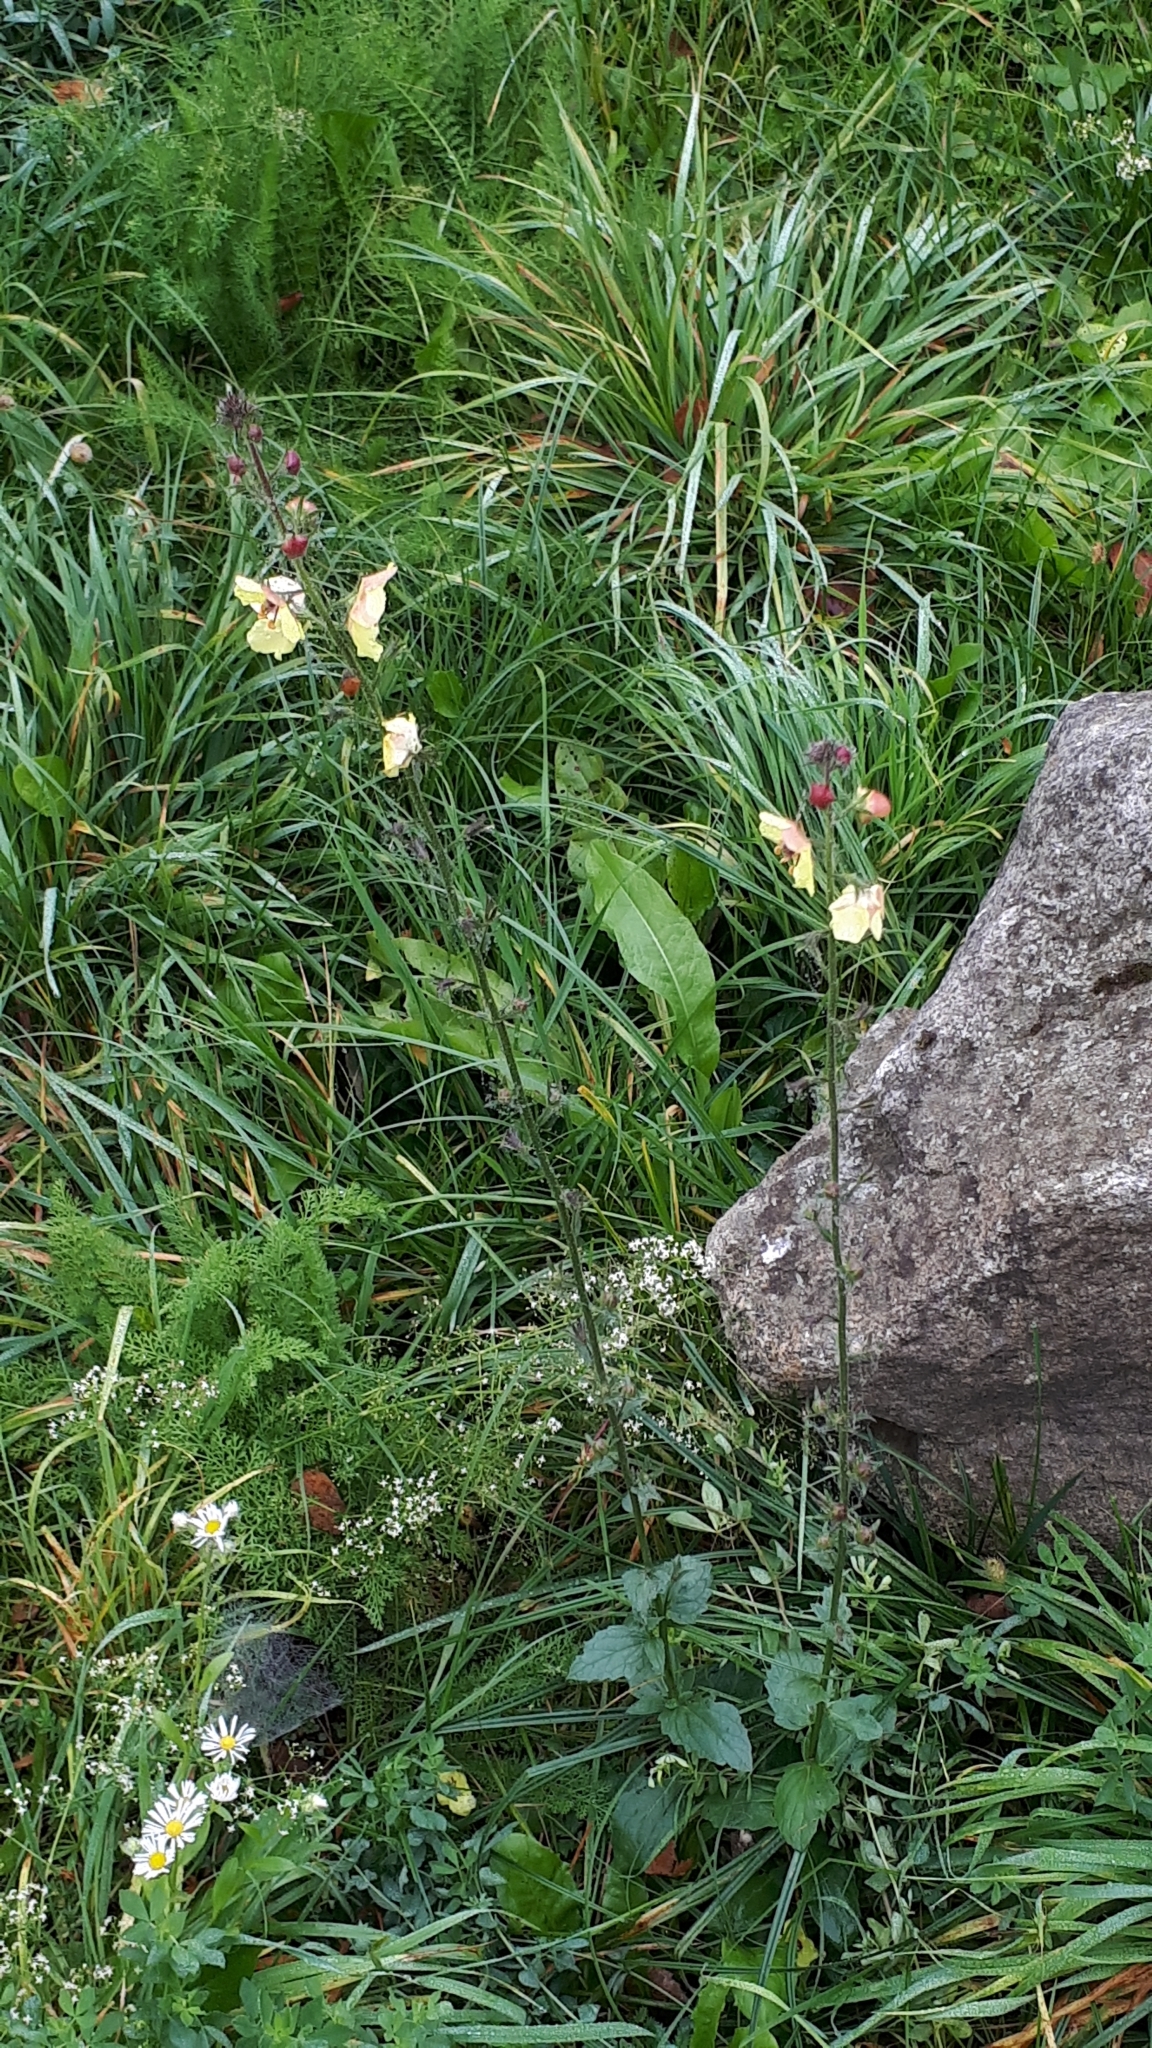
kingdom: Plantae
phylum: Tracheophyta
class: Magnoliopsida
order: Lamiales
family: Scrophulariaceae
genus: Verbascum
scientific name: Verbascum blattaria
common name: Moth mullein
